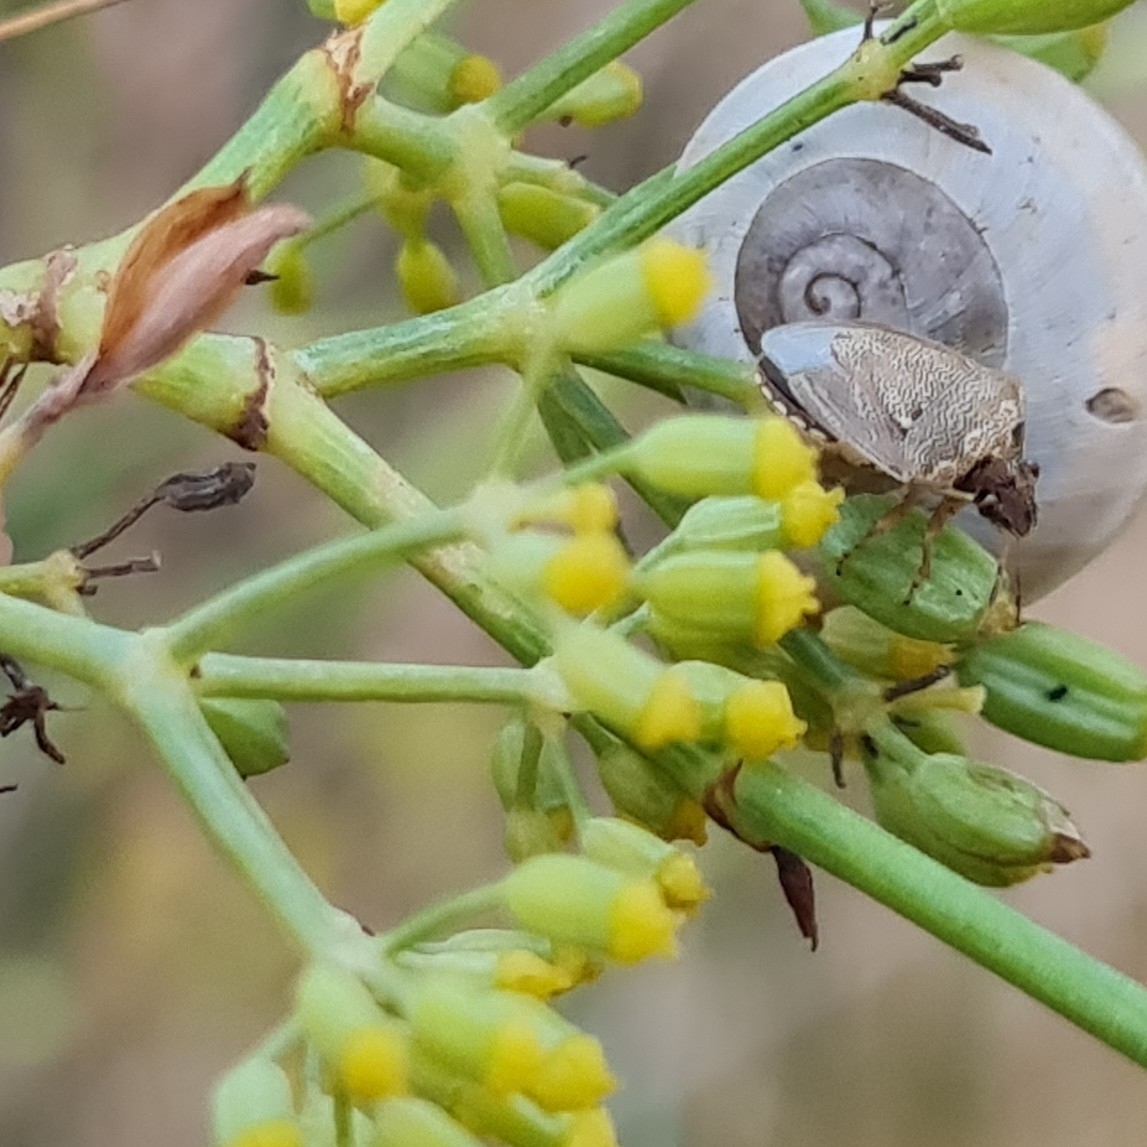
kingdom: Animalia
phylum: Arthropoda
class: Insecta
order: Hemiptera
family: Pentatomidae
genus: Eysarcoris
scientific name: Eysarcoris ventralis
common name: White-spotted stink bug
